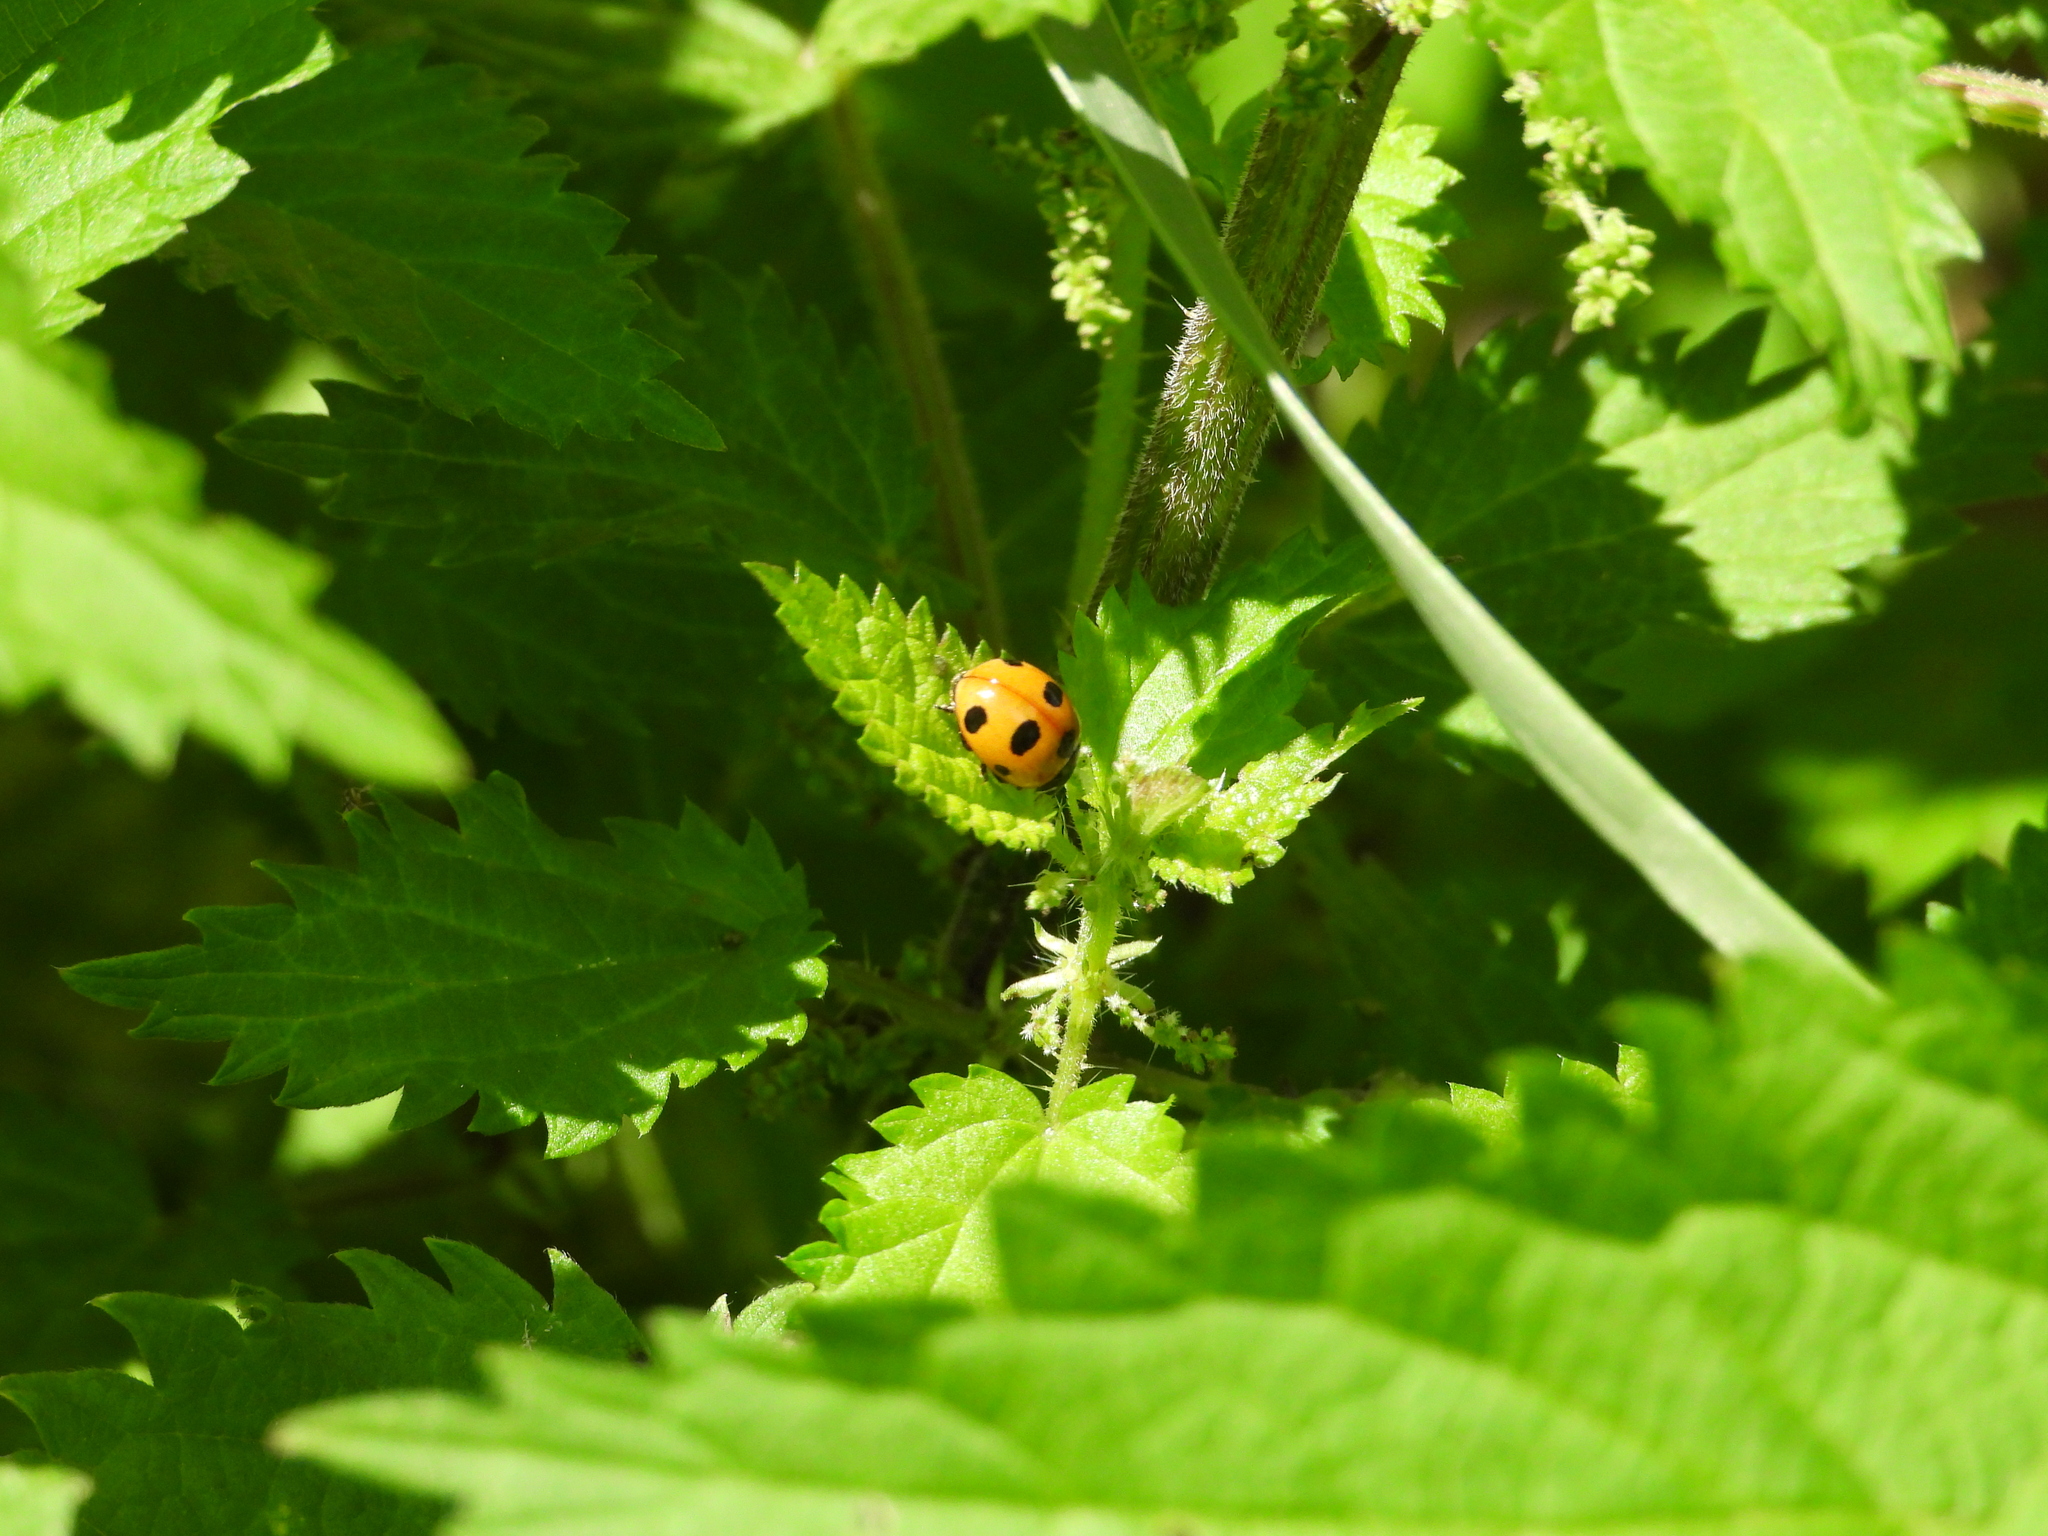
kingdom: Animalia
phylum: Arthropoda
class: Insecta
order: Coleoptera
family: Coccinellidae
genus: Coccinella
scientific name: Coccinella magnifica
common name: Scarce 7-spot ladybird
